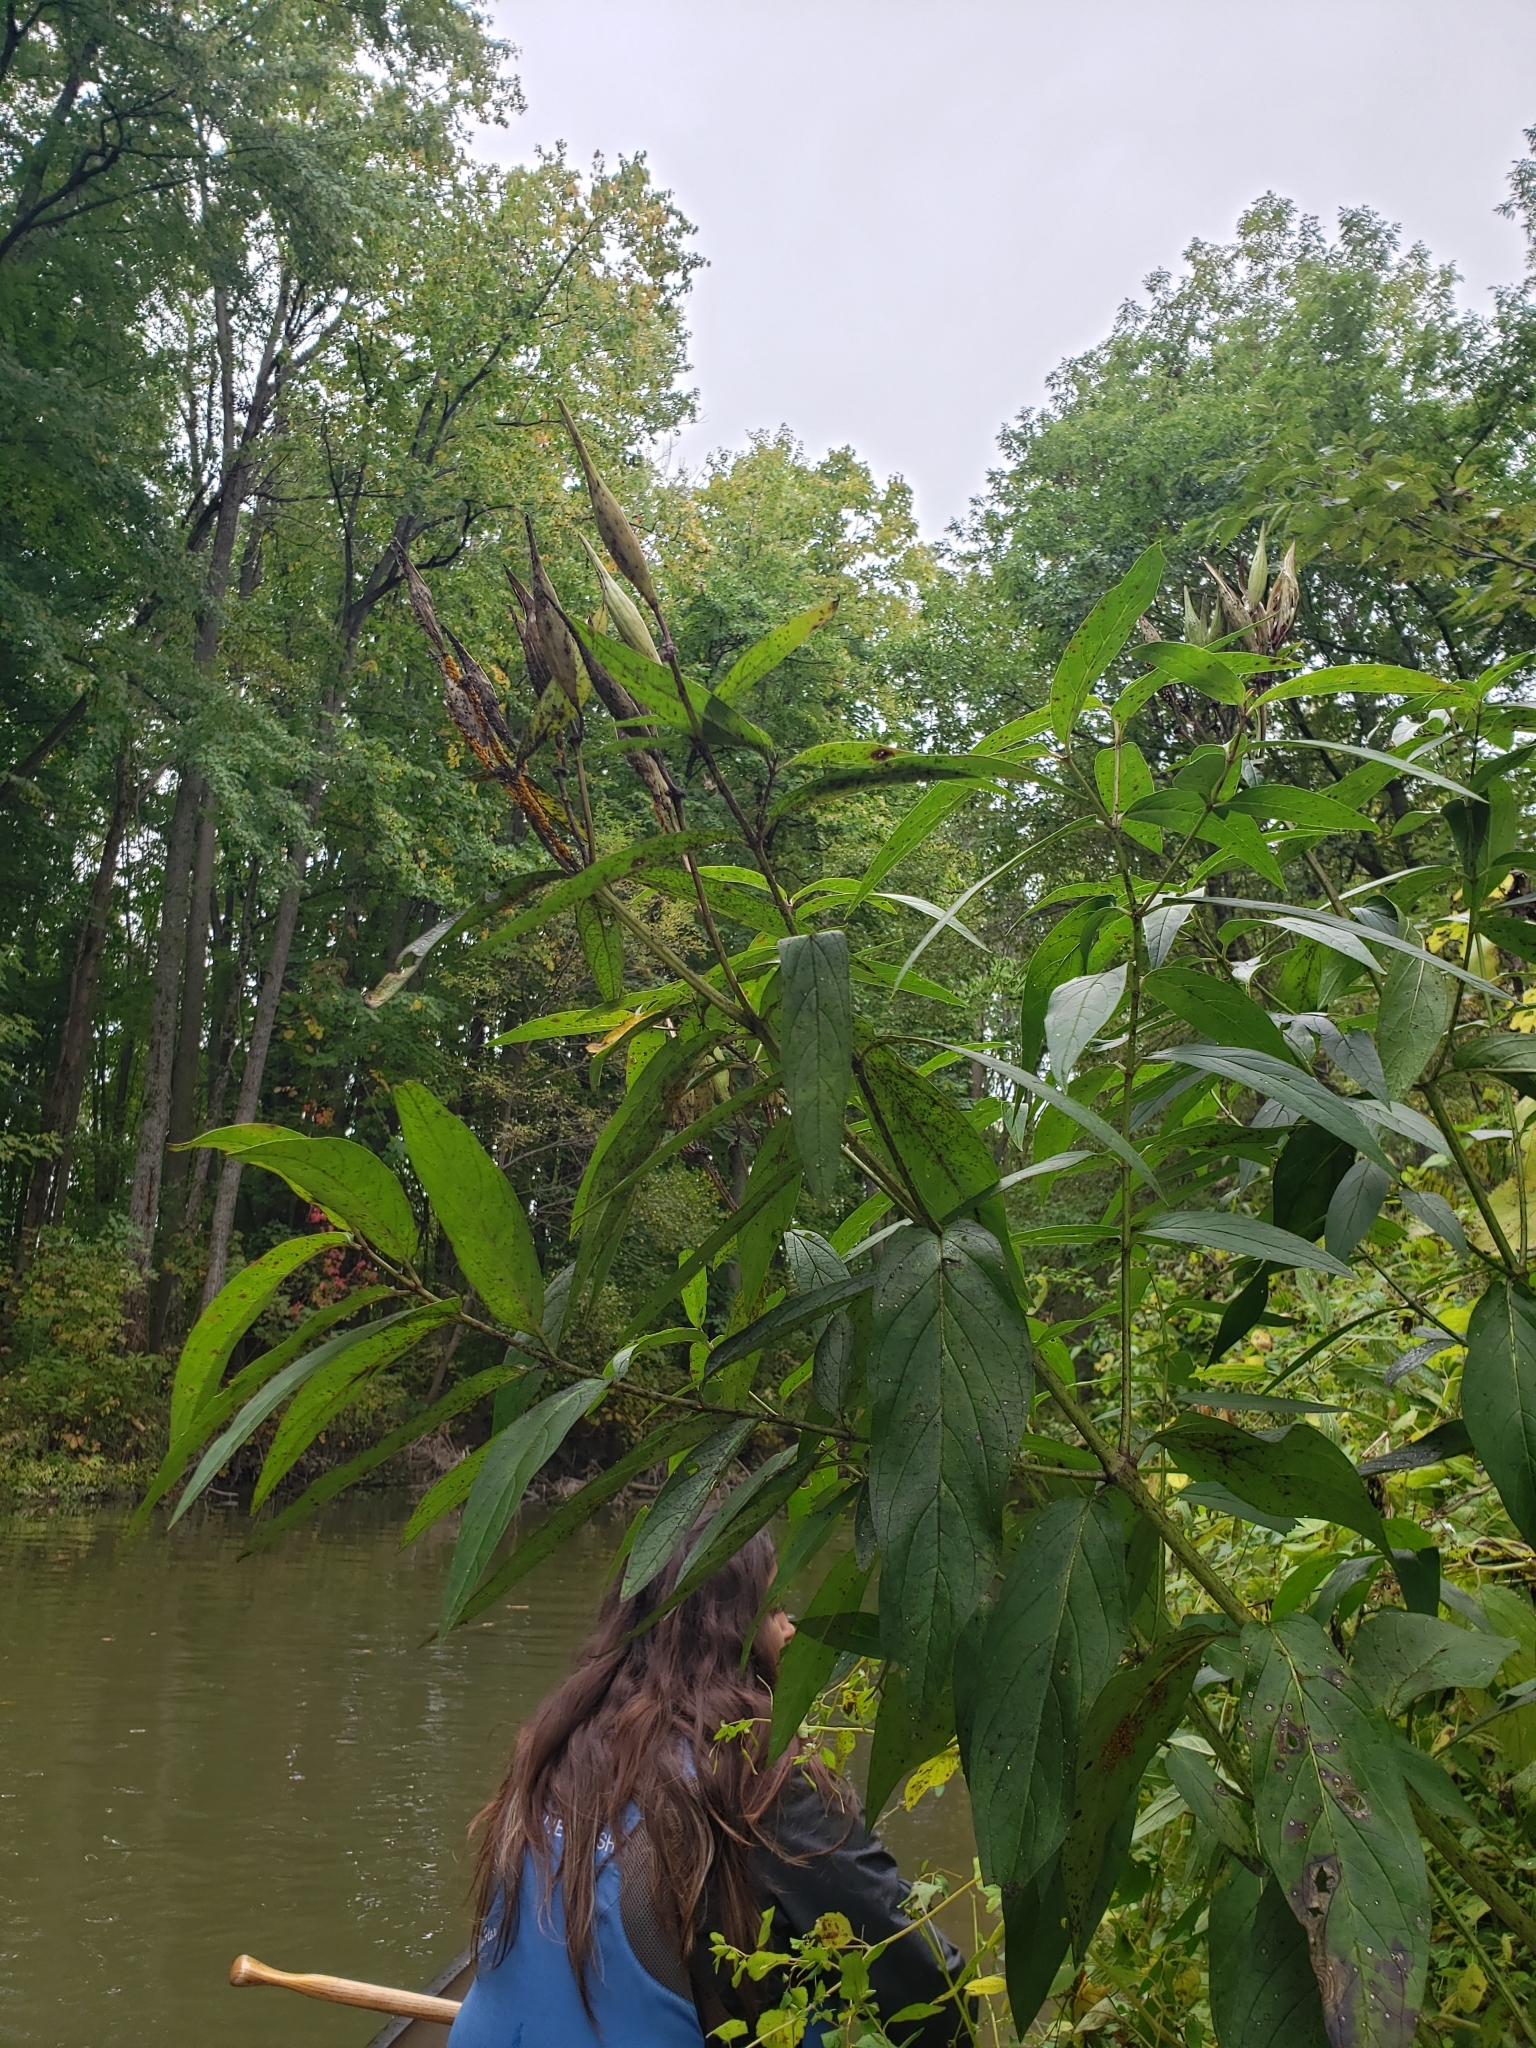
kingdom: Plantae
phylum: Tracheophyta
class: Magnoliopsida
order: Gentianales
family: Apocynaceae
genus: Asclepias
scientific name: Asclepias incarnata
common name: Swamp milkweed
